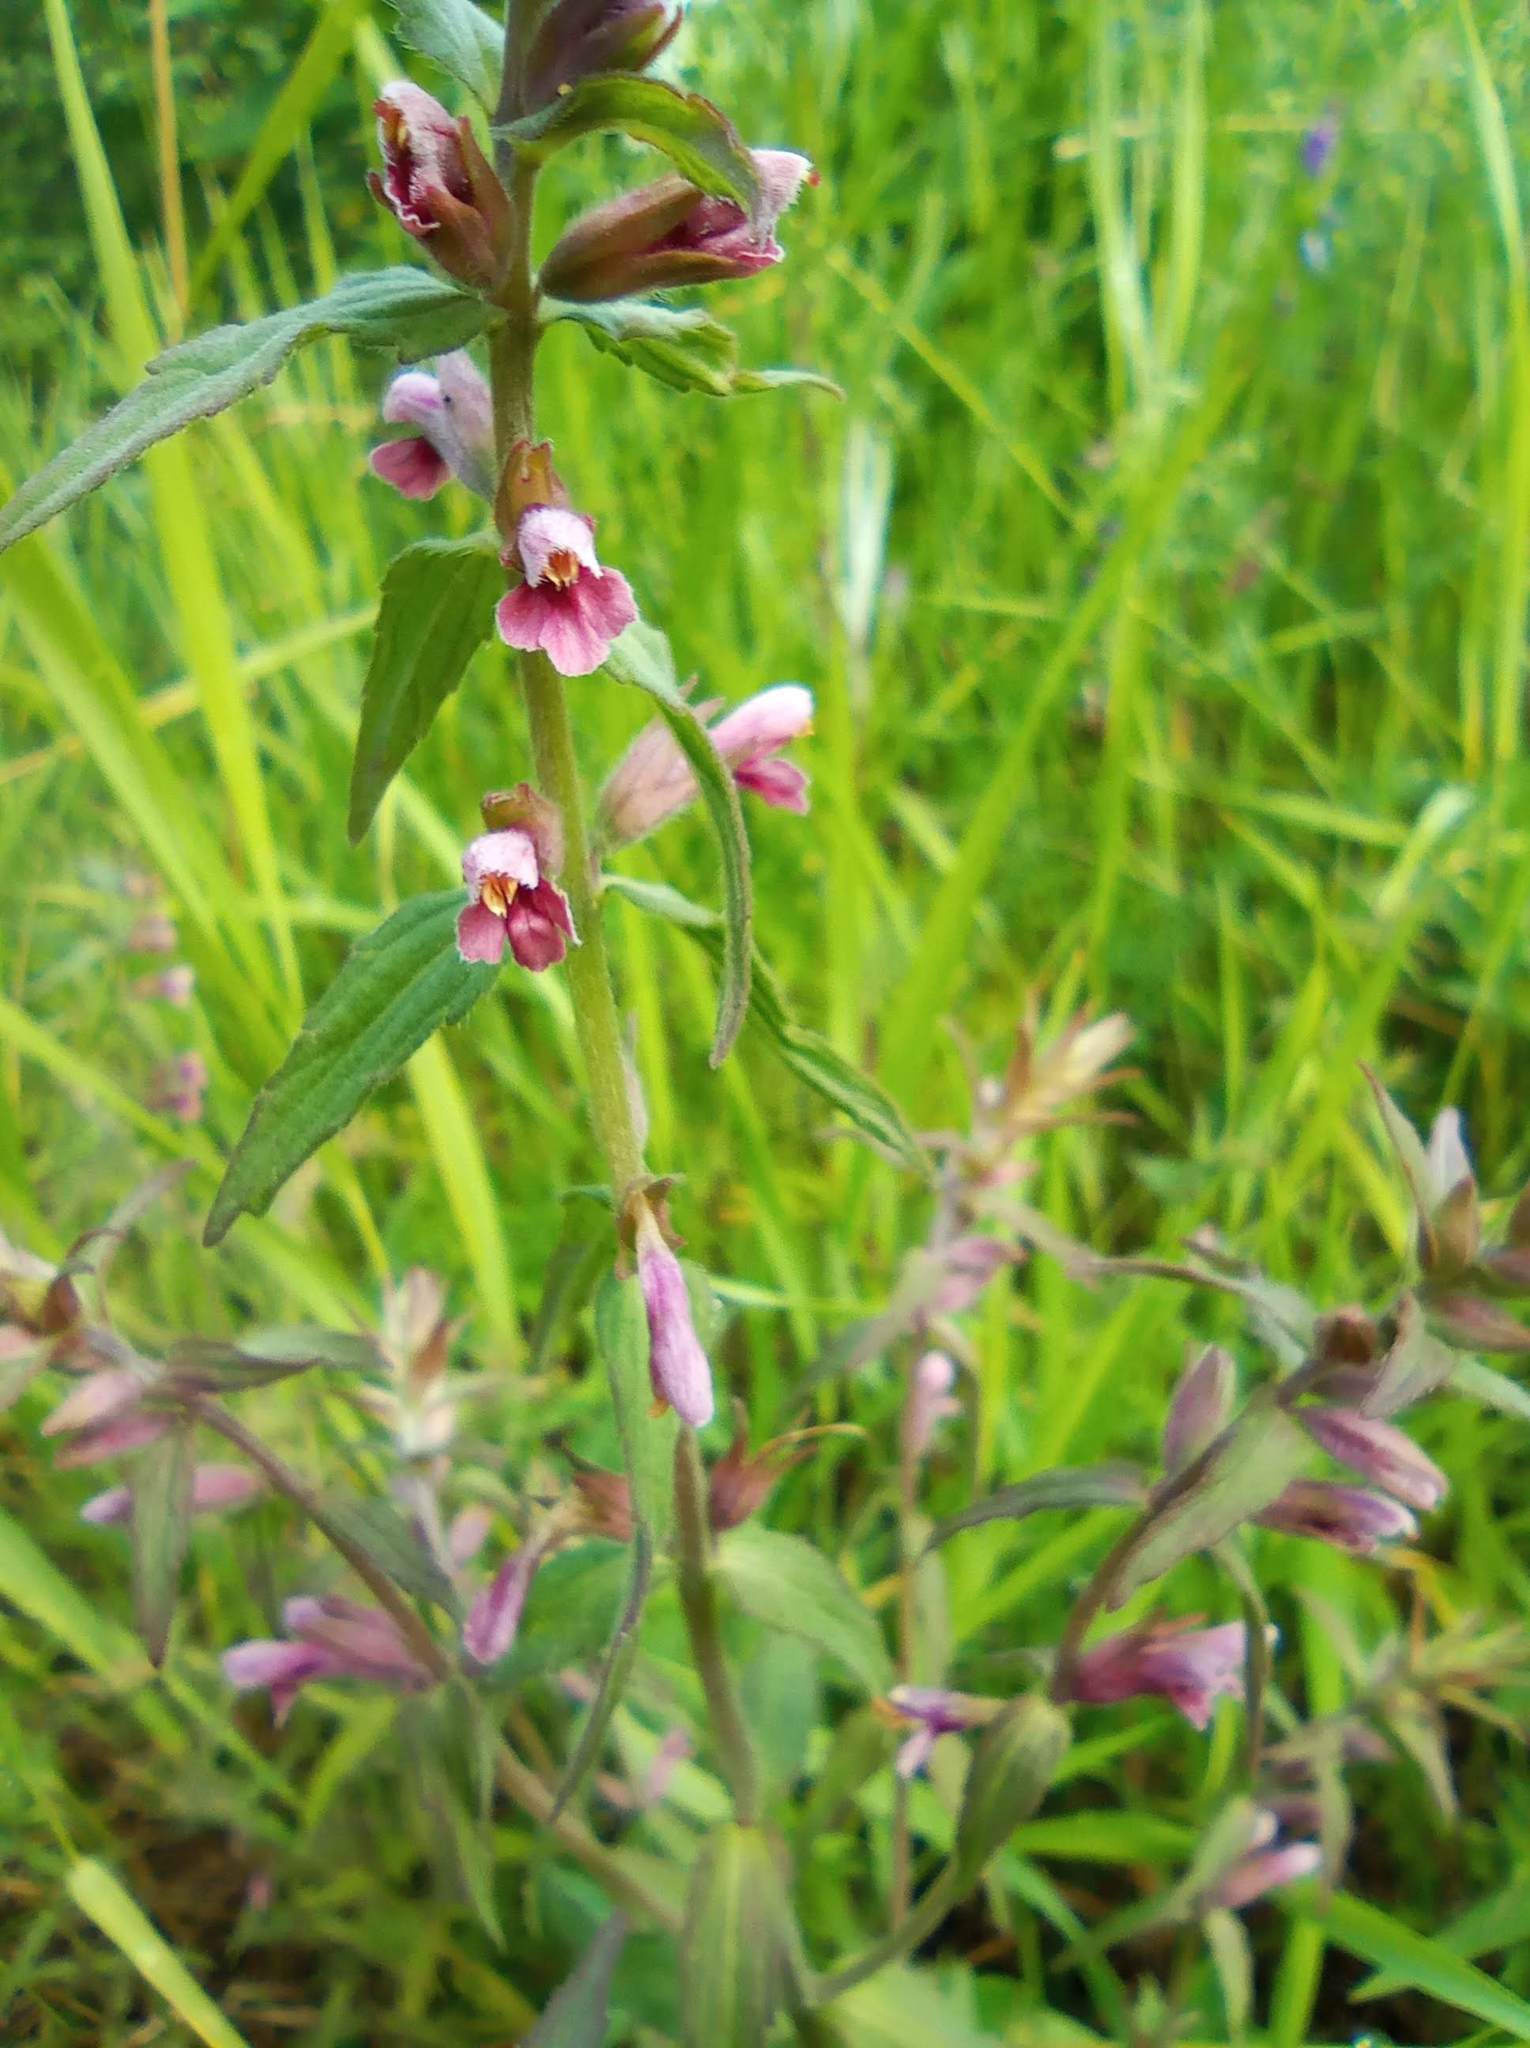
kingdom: Plantae
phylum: Tracheophyta
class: Magnoliopsida
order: Lamiales
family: Orobanchaceae
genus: Odontites
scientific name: Odontites vulgaris
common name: Broomrape
